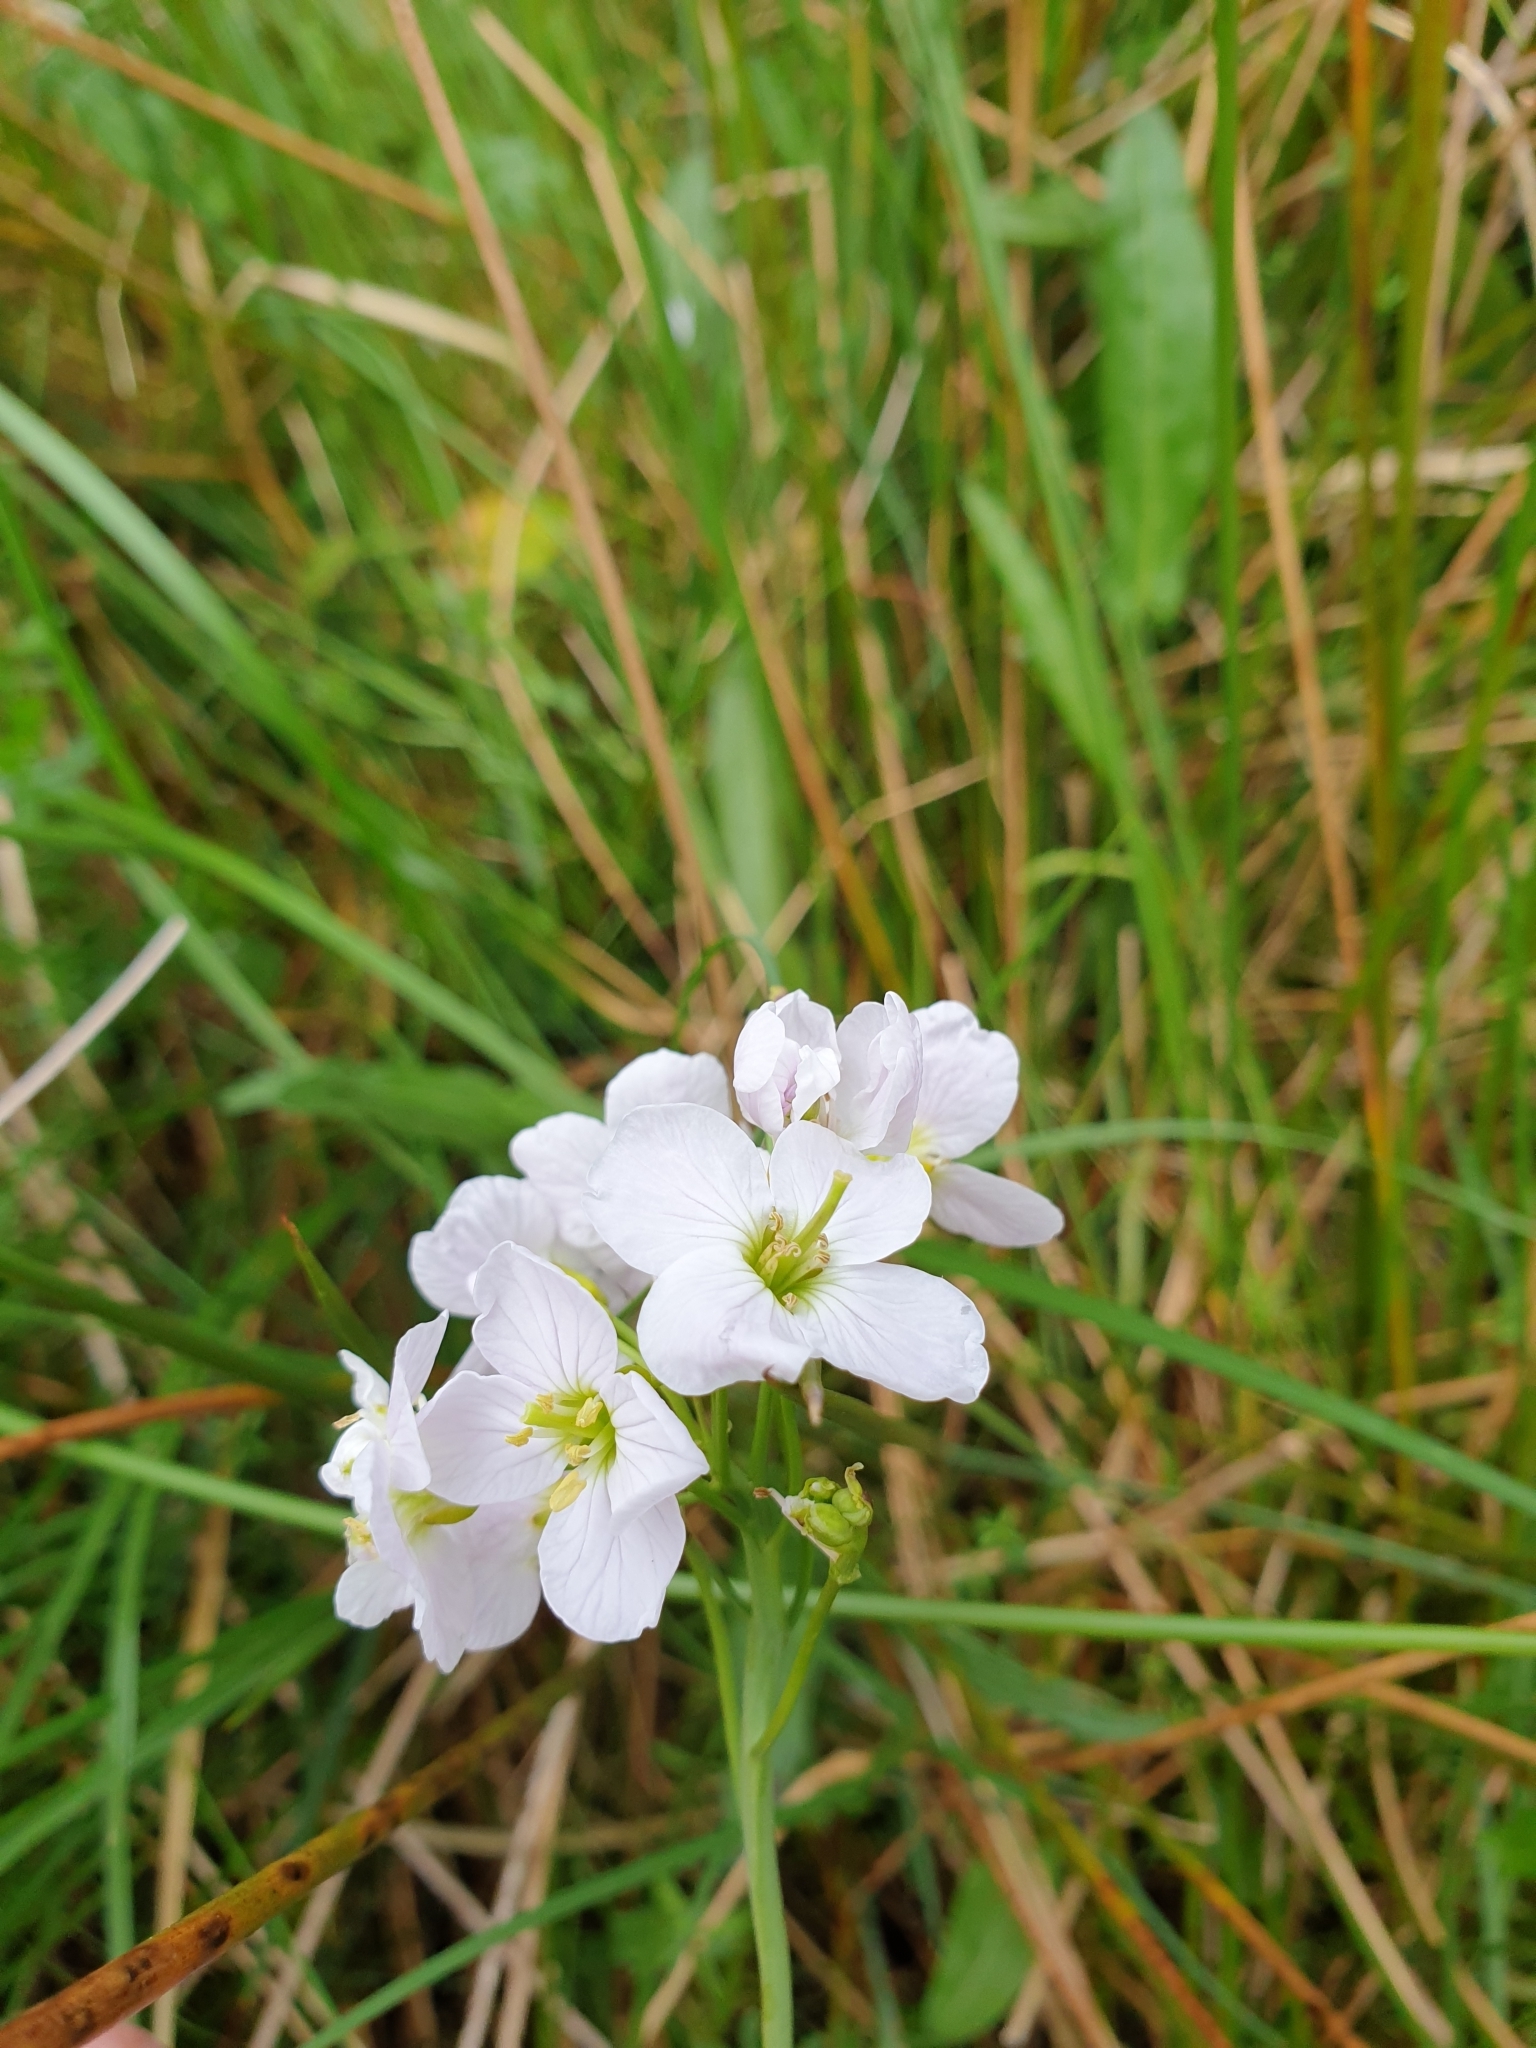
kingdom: Plantae
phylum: Tracheophyta
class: Magnoliopsida
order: Brassicales
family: Brassicaceae
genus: Cardamine
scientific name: Cardamine pratensis
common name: Cuckoo flower
